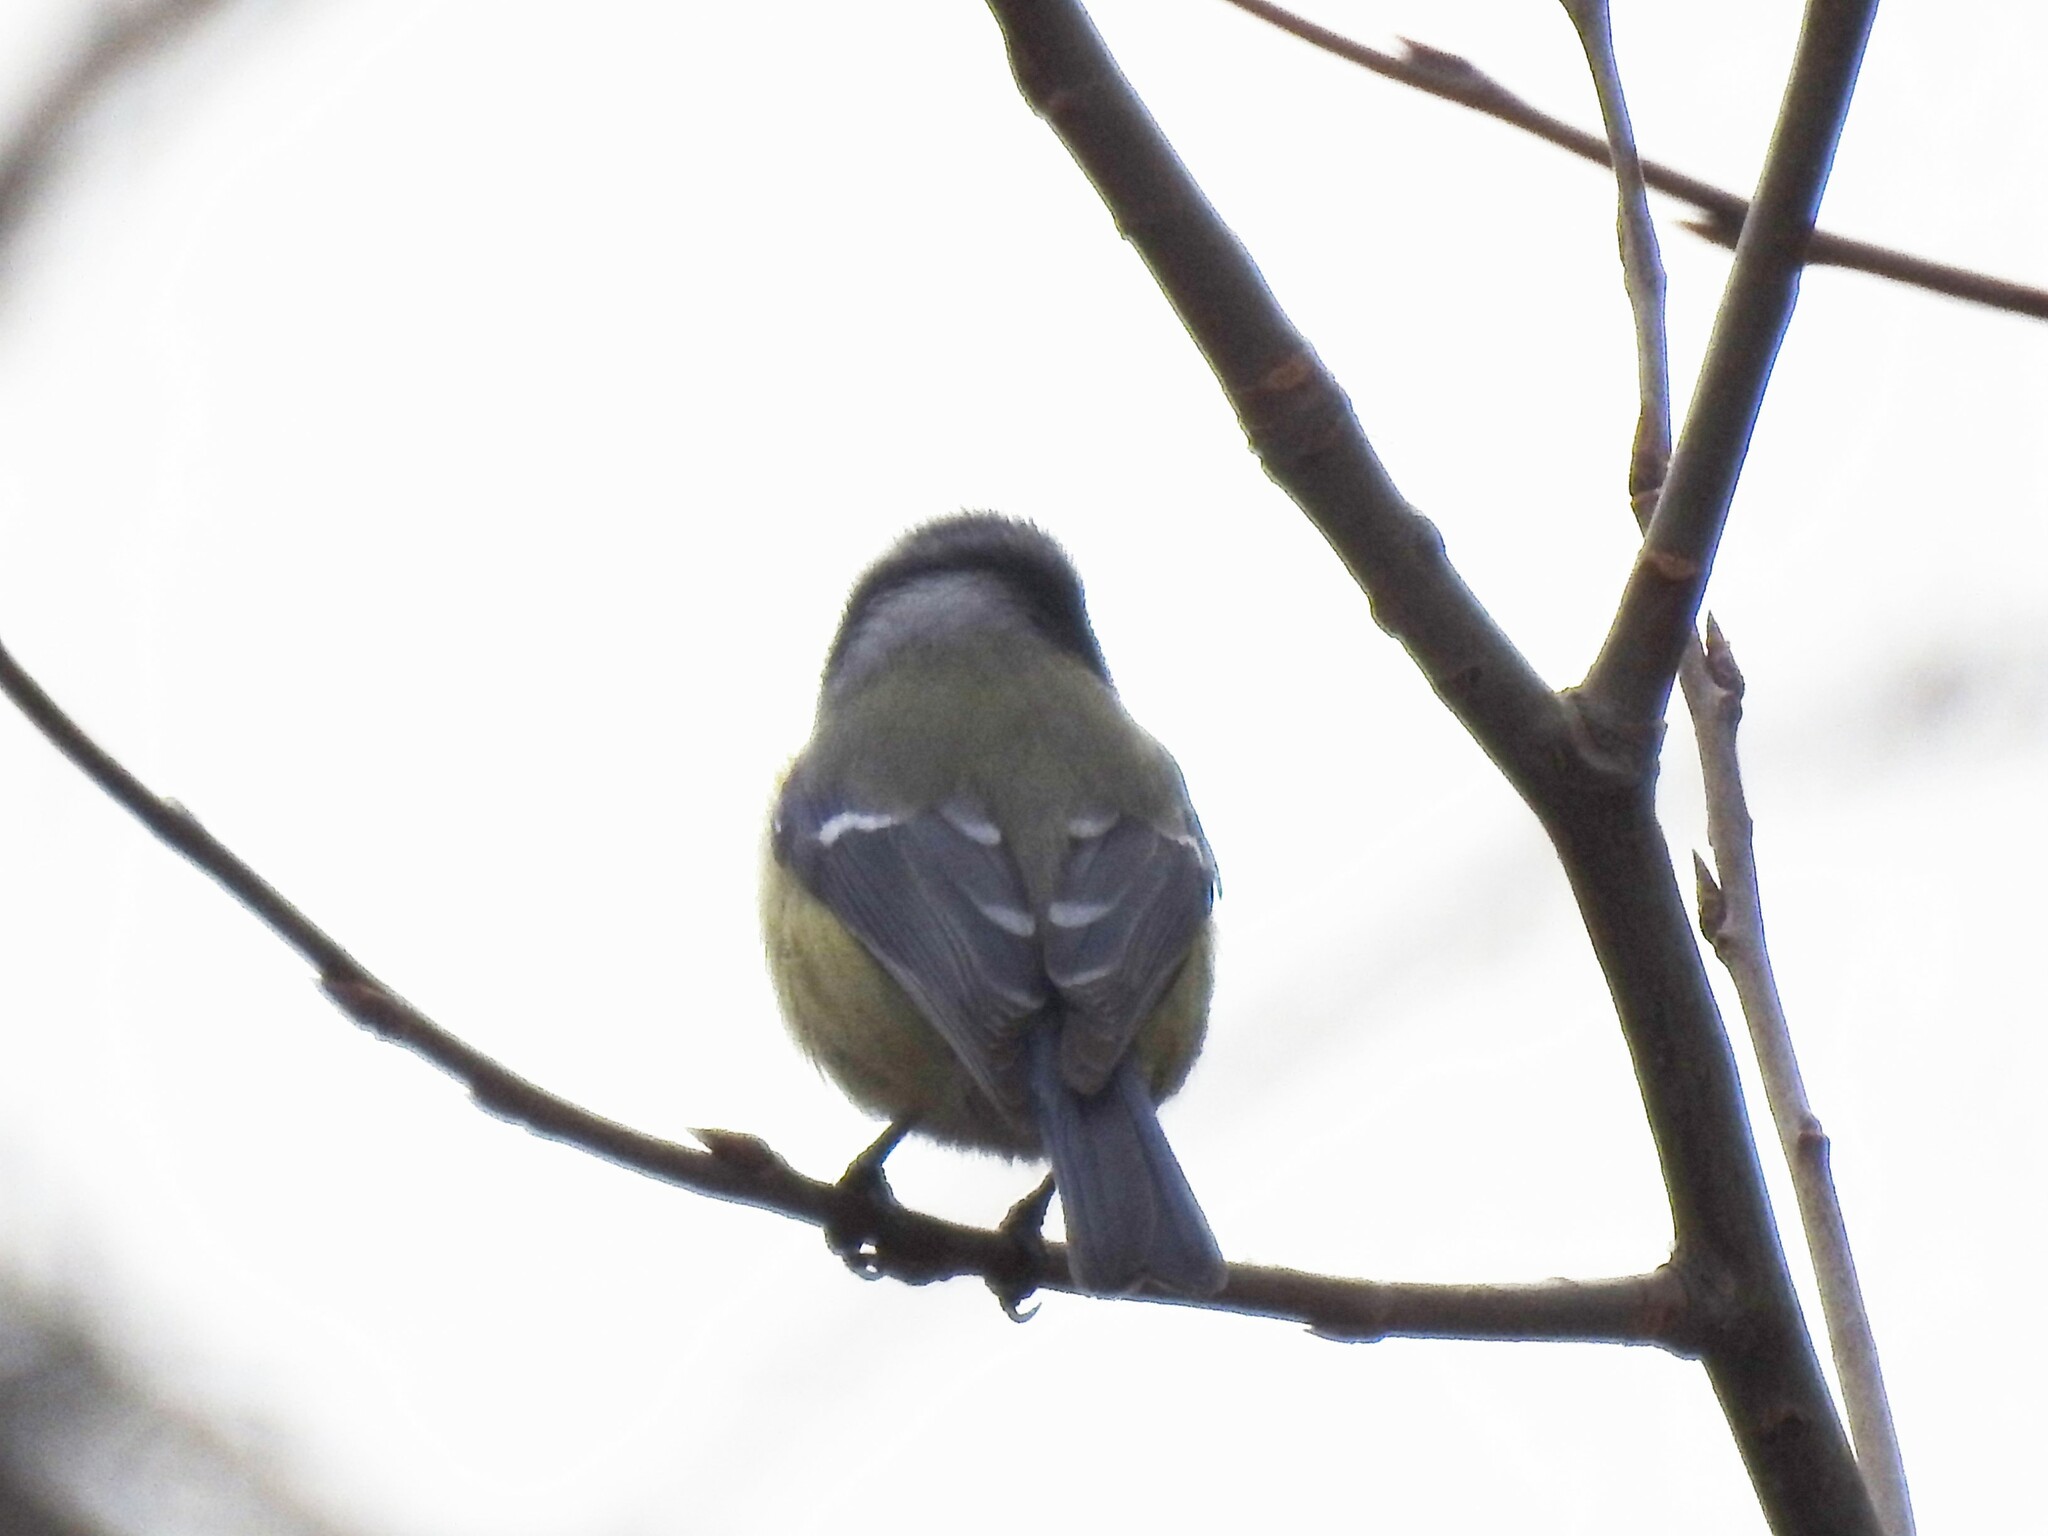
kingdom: Animalia
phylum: Chordata
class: Aves
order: Passeriformes
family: Paridae
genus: Cyanistes
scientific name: Cyanistes caeruleus
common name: Eurasian blue tit
